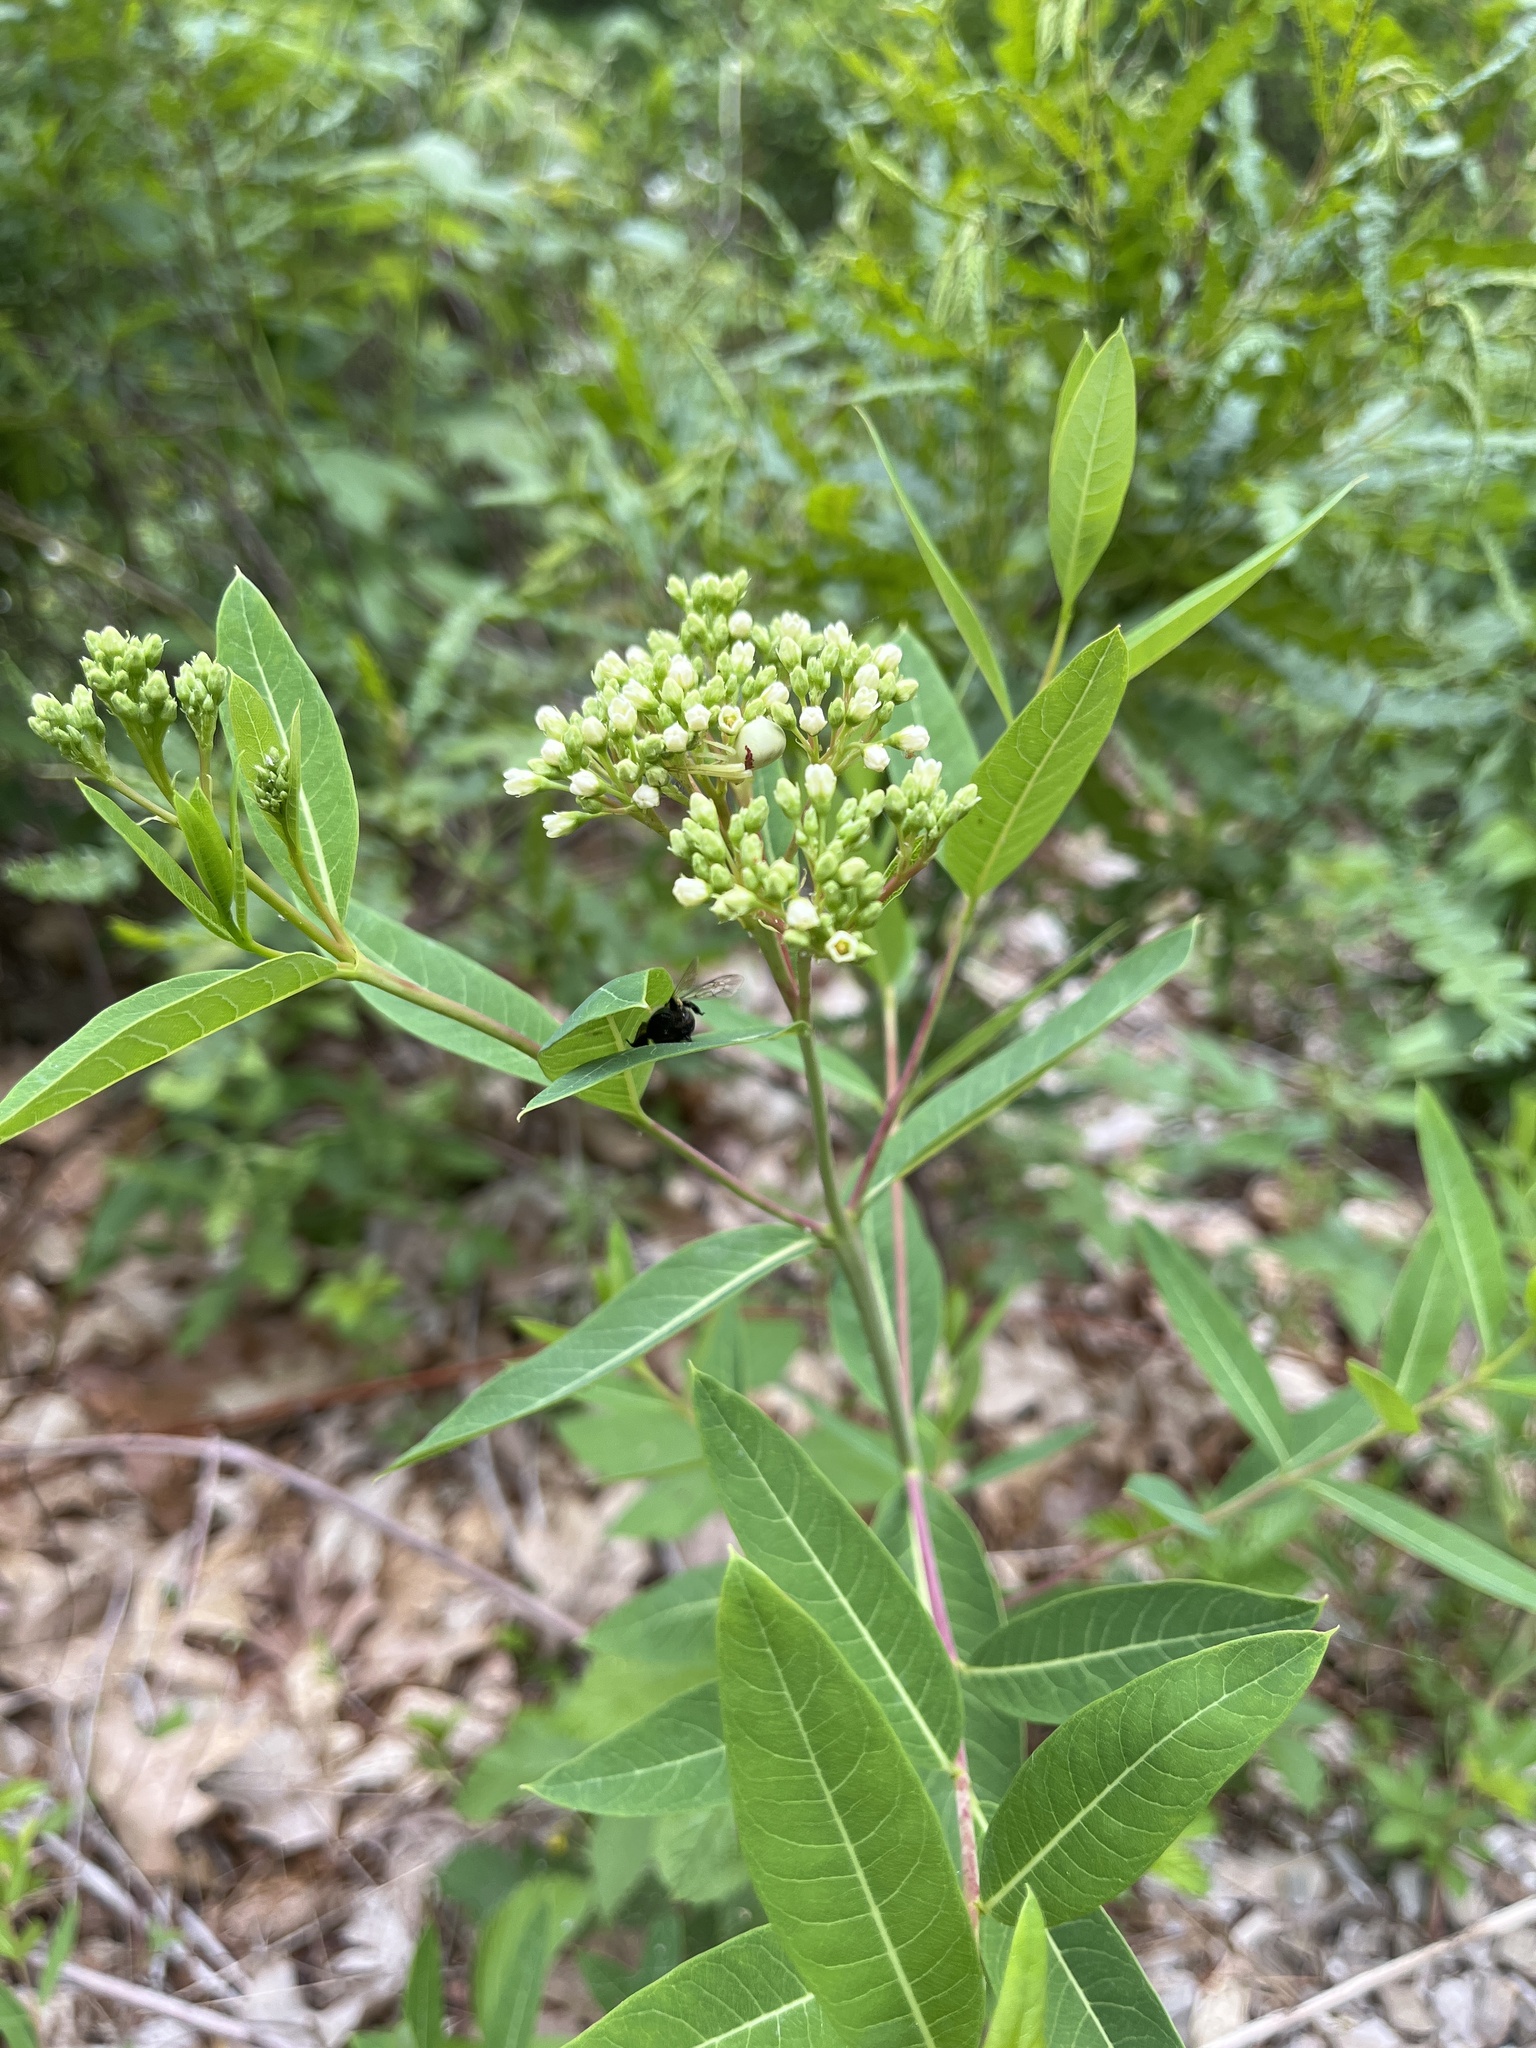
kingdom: Plantae
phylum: Tracheophyta
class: Magnoliopsida
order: Gentianales
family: Apocynaceae
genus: Apocynum
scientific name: Apocynum cannabinum
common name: Hemp dogbane
